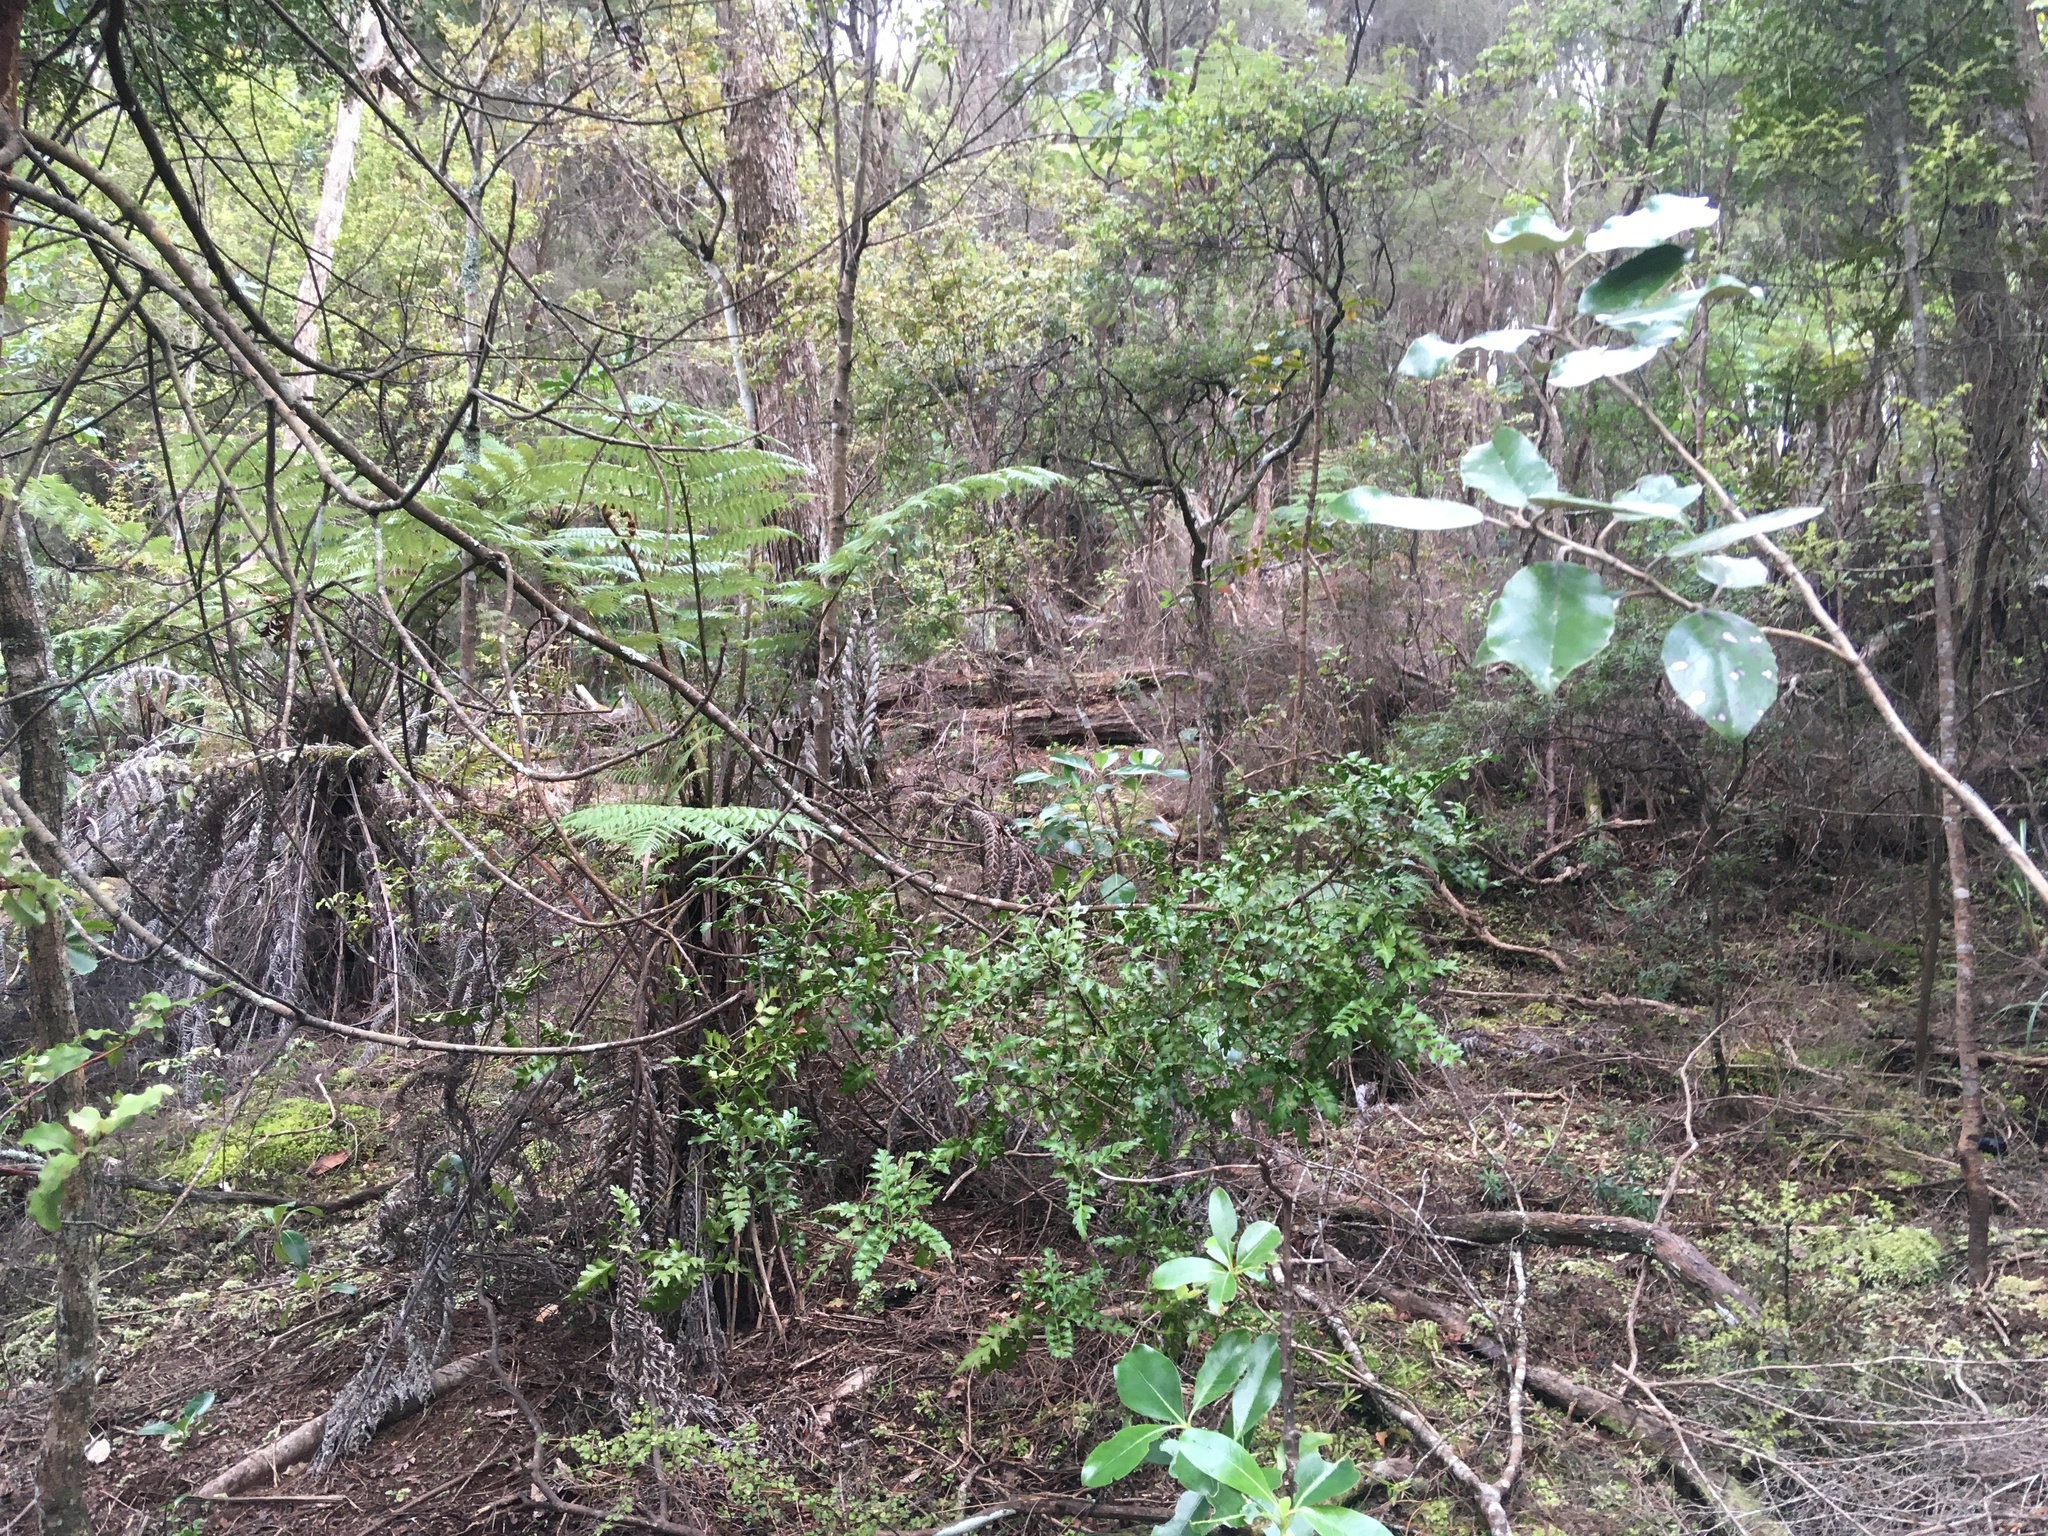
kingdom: Plantae
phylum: Tracheophyta
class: Pinopsida
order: Pinales
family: Phyllocladaceae
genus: Phyllocladus
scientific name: Phyllocladus trichomanoides
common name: Celery pine
